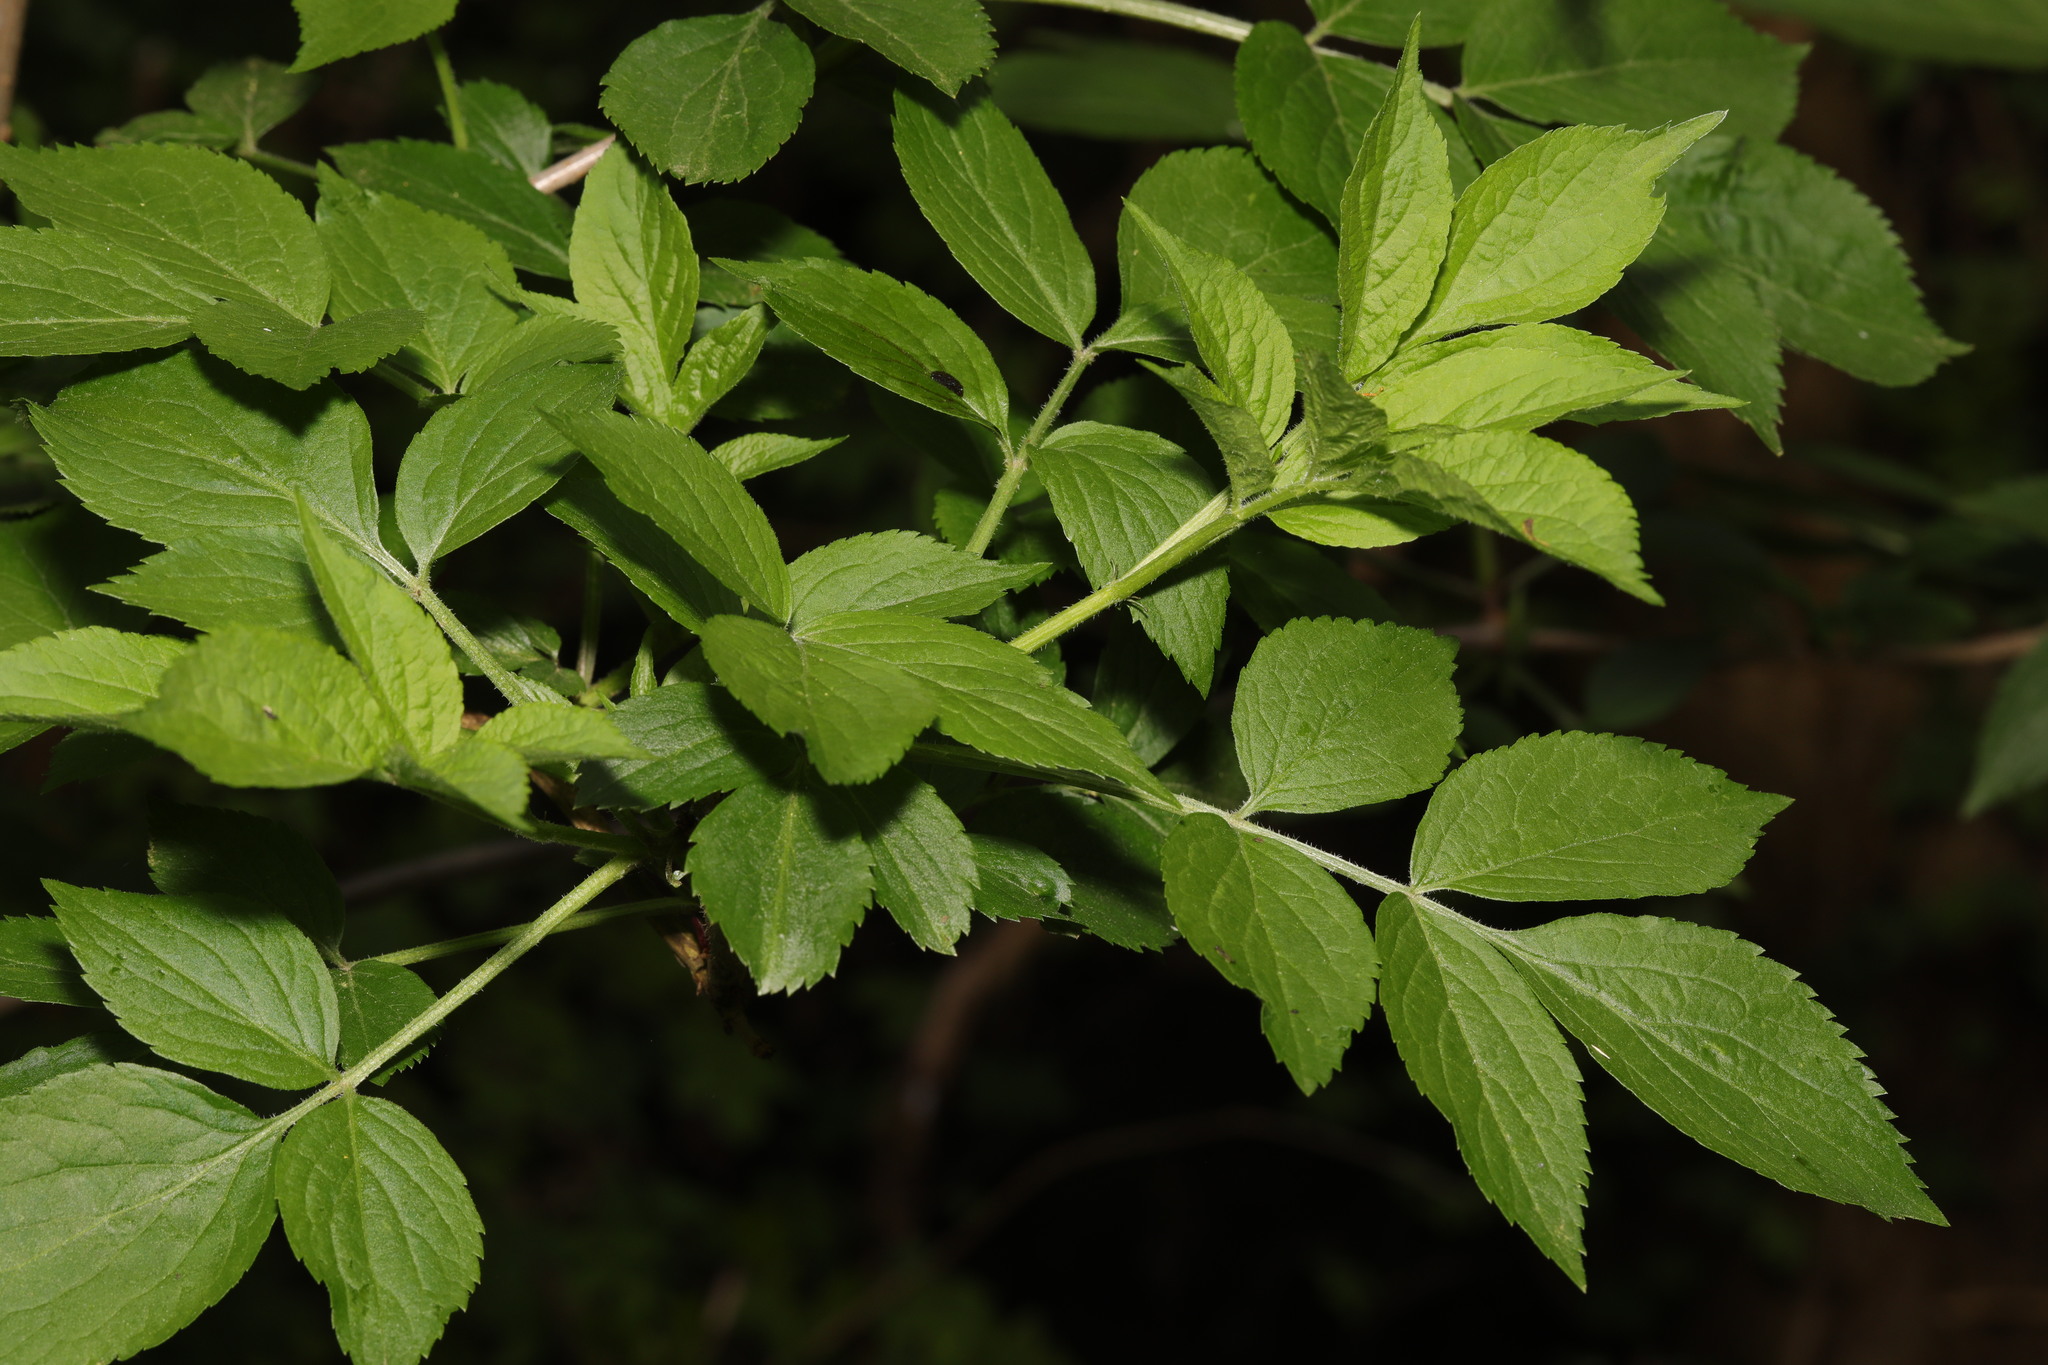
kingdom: Plantae
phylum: Tracheophyta
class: Magnoliopsida
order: Dipsacales
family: Viburnaceae
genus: Sambucus
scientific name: Sambucus nigra
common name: Elder
